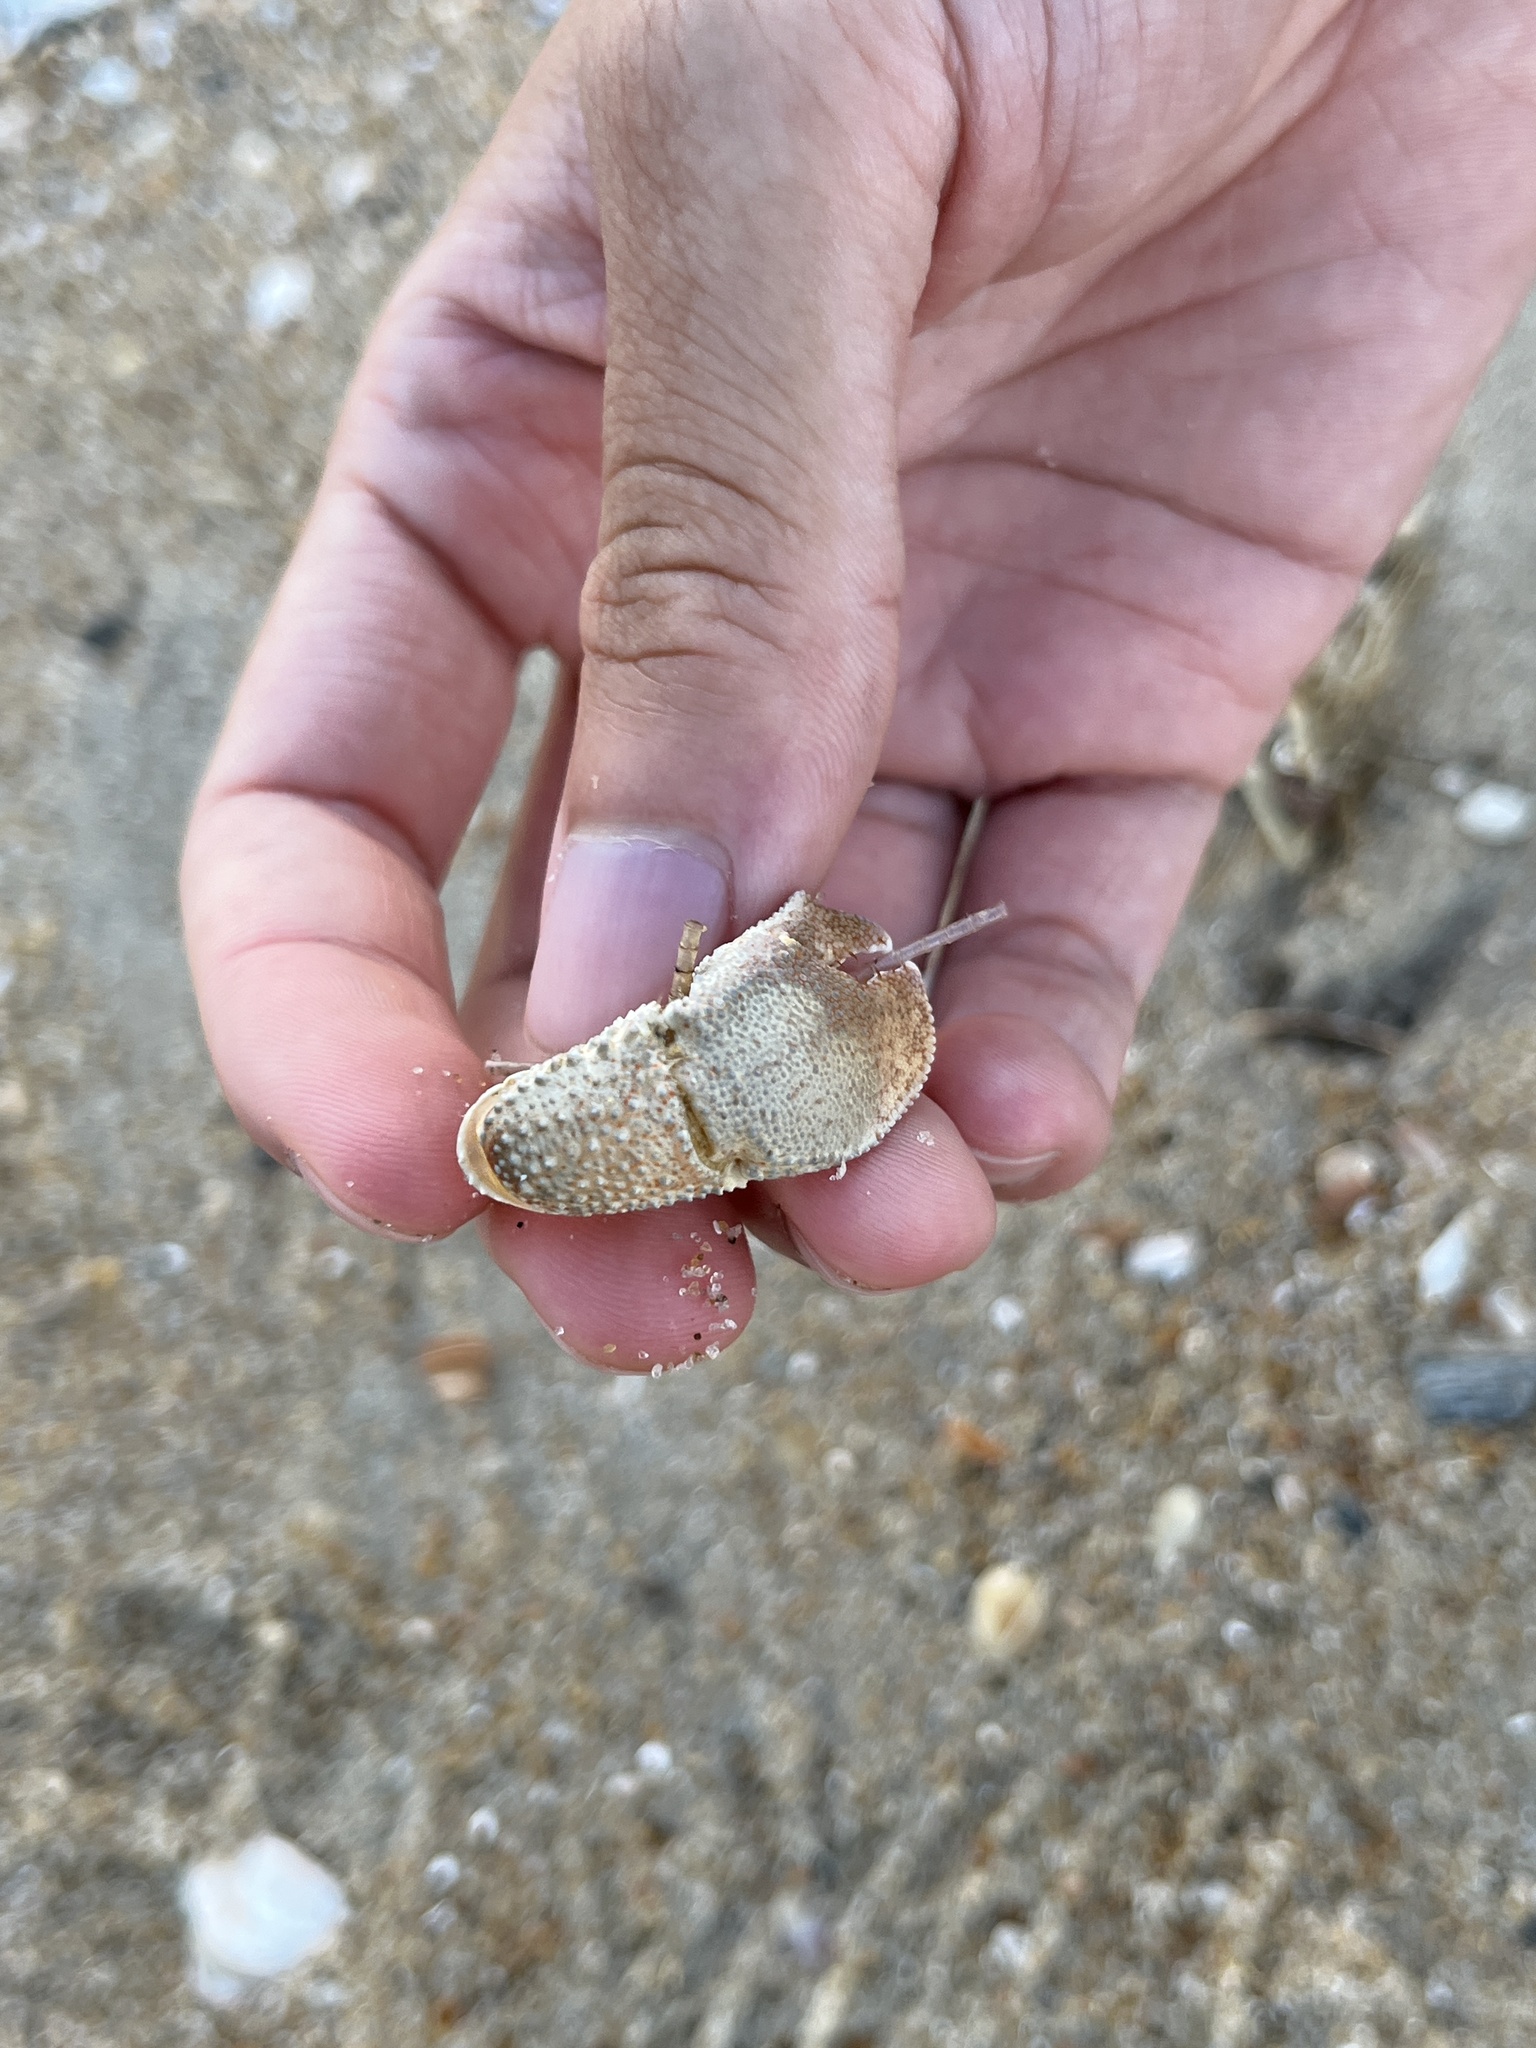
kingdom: Animalia
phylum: Arthropoda
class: Malacostraca
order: Decapoda
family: Paguridae
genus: Pagurus
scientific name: Pagurus pollicaris
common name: Flatclaw hermit
